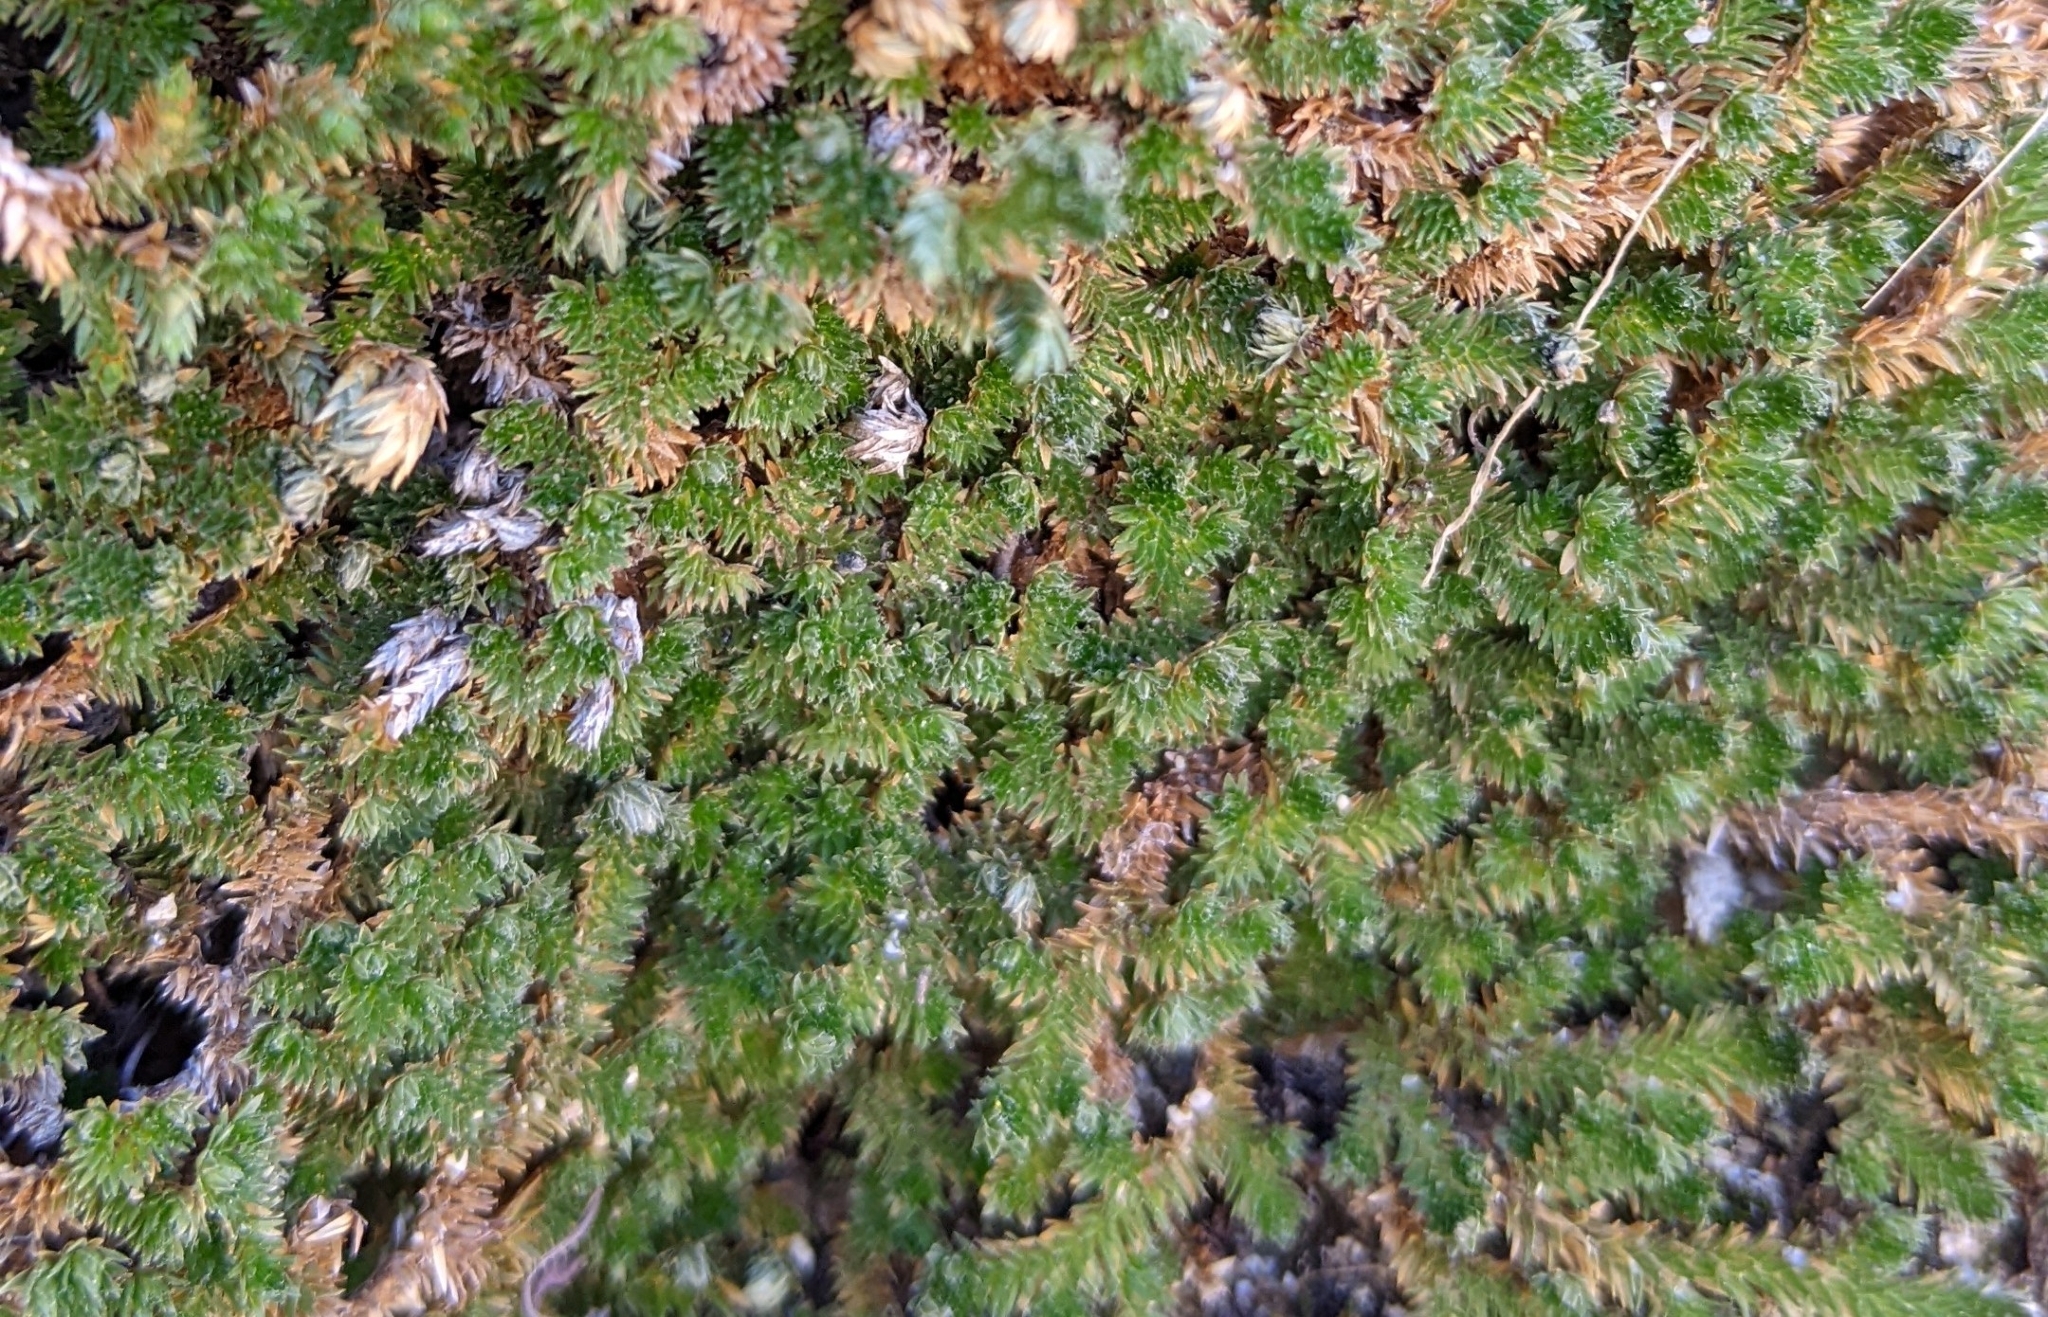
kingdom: Plantae
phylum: Tracheophyta
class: Lycopodiopsida
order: Selaginellales
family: Selaginellaceae
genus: Selaginella
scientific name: Selaginella eremophila
